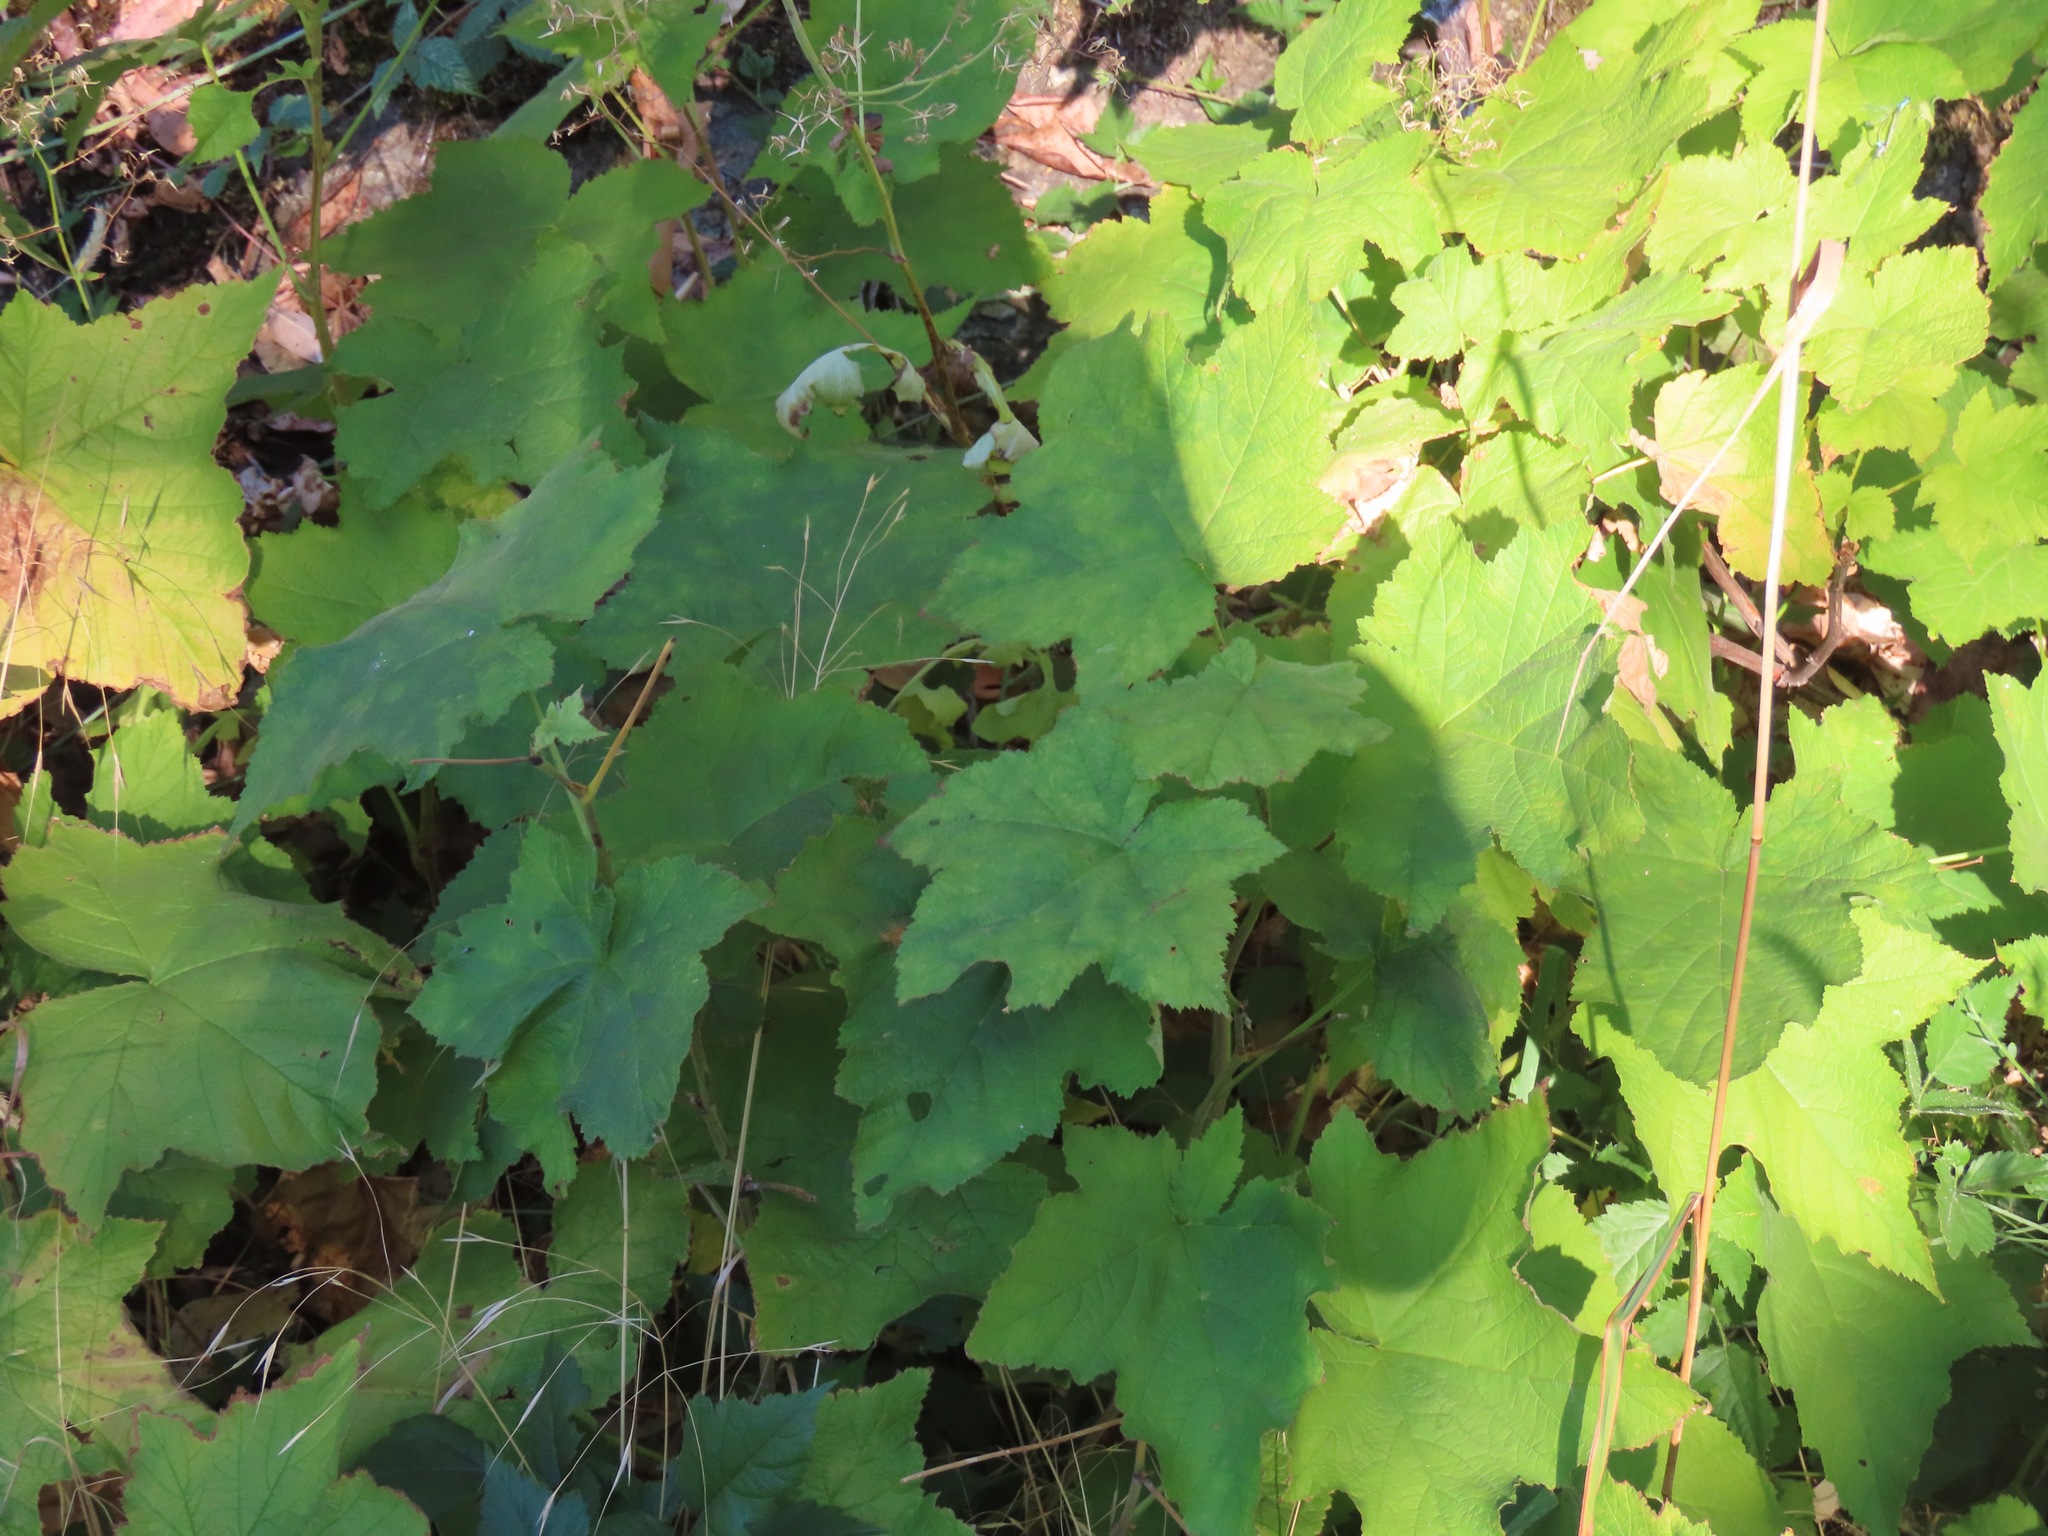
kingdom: Plantae
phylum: Tracheophyta
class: Magnoliopsida
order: Rosales
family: Rosaceae
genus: Rubus
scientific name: Rubus parviflorus
